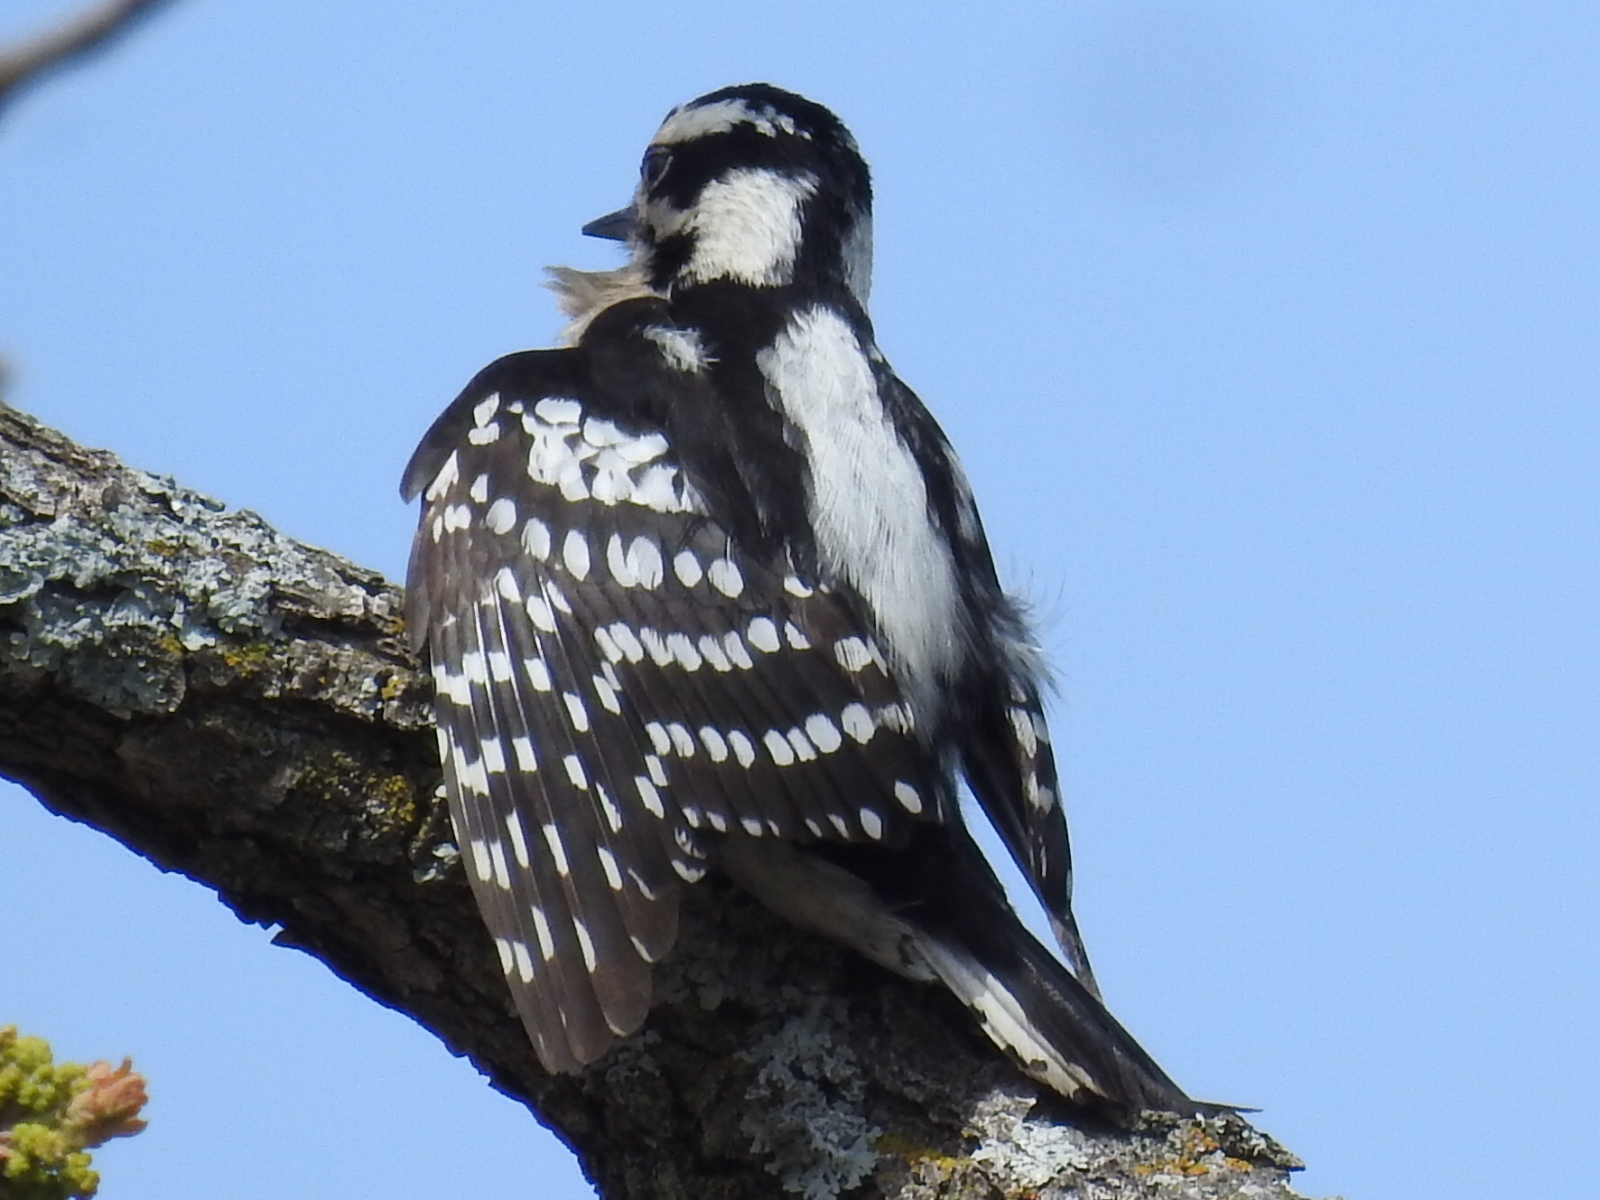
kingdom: Animalia
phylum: Chordata
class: Aves
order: Piciformes
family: Picidae
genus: Dryobates
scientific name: Dryobates pubescens
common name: Downy woodpecker
